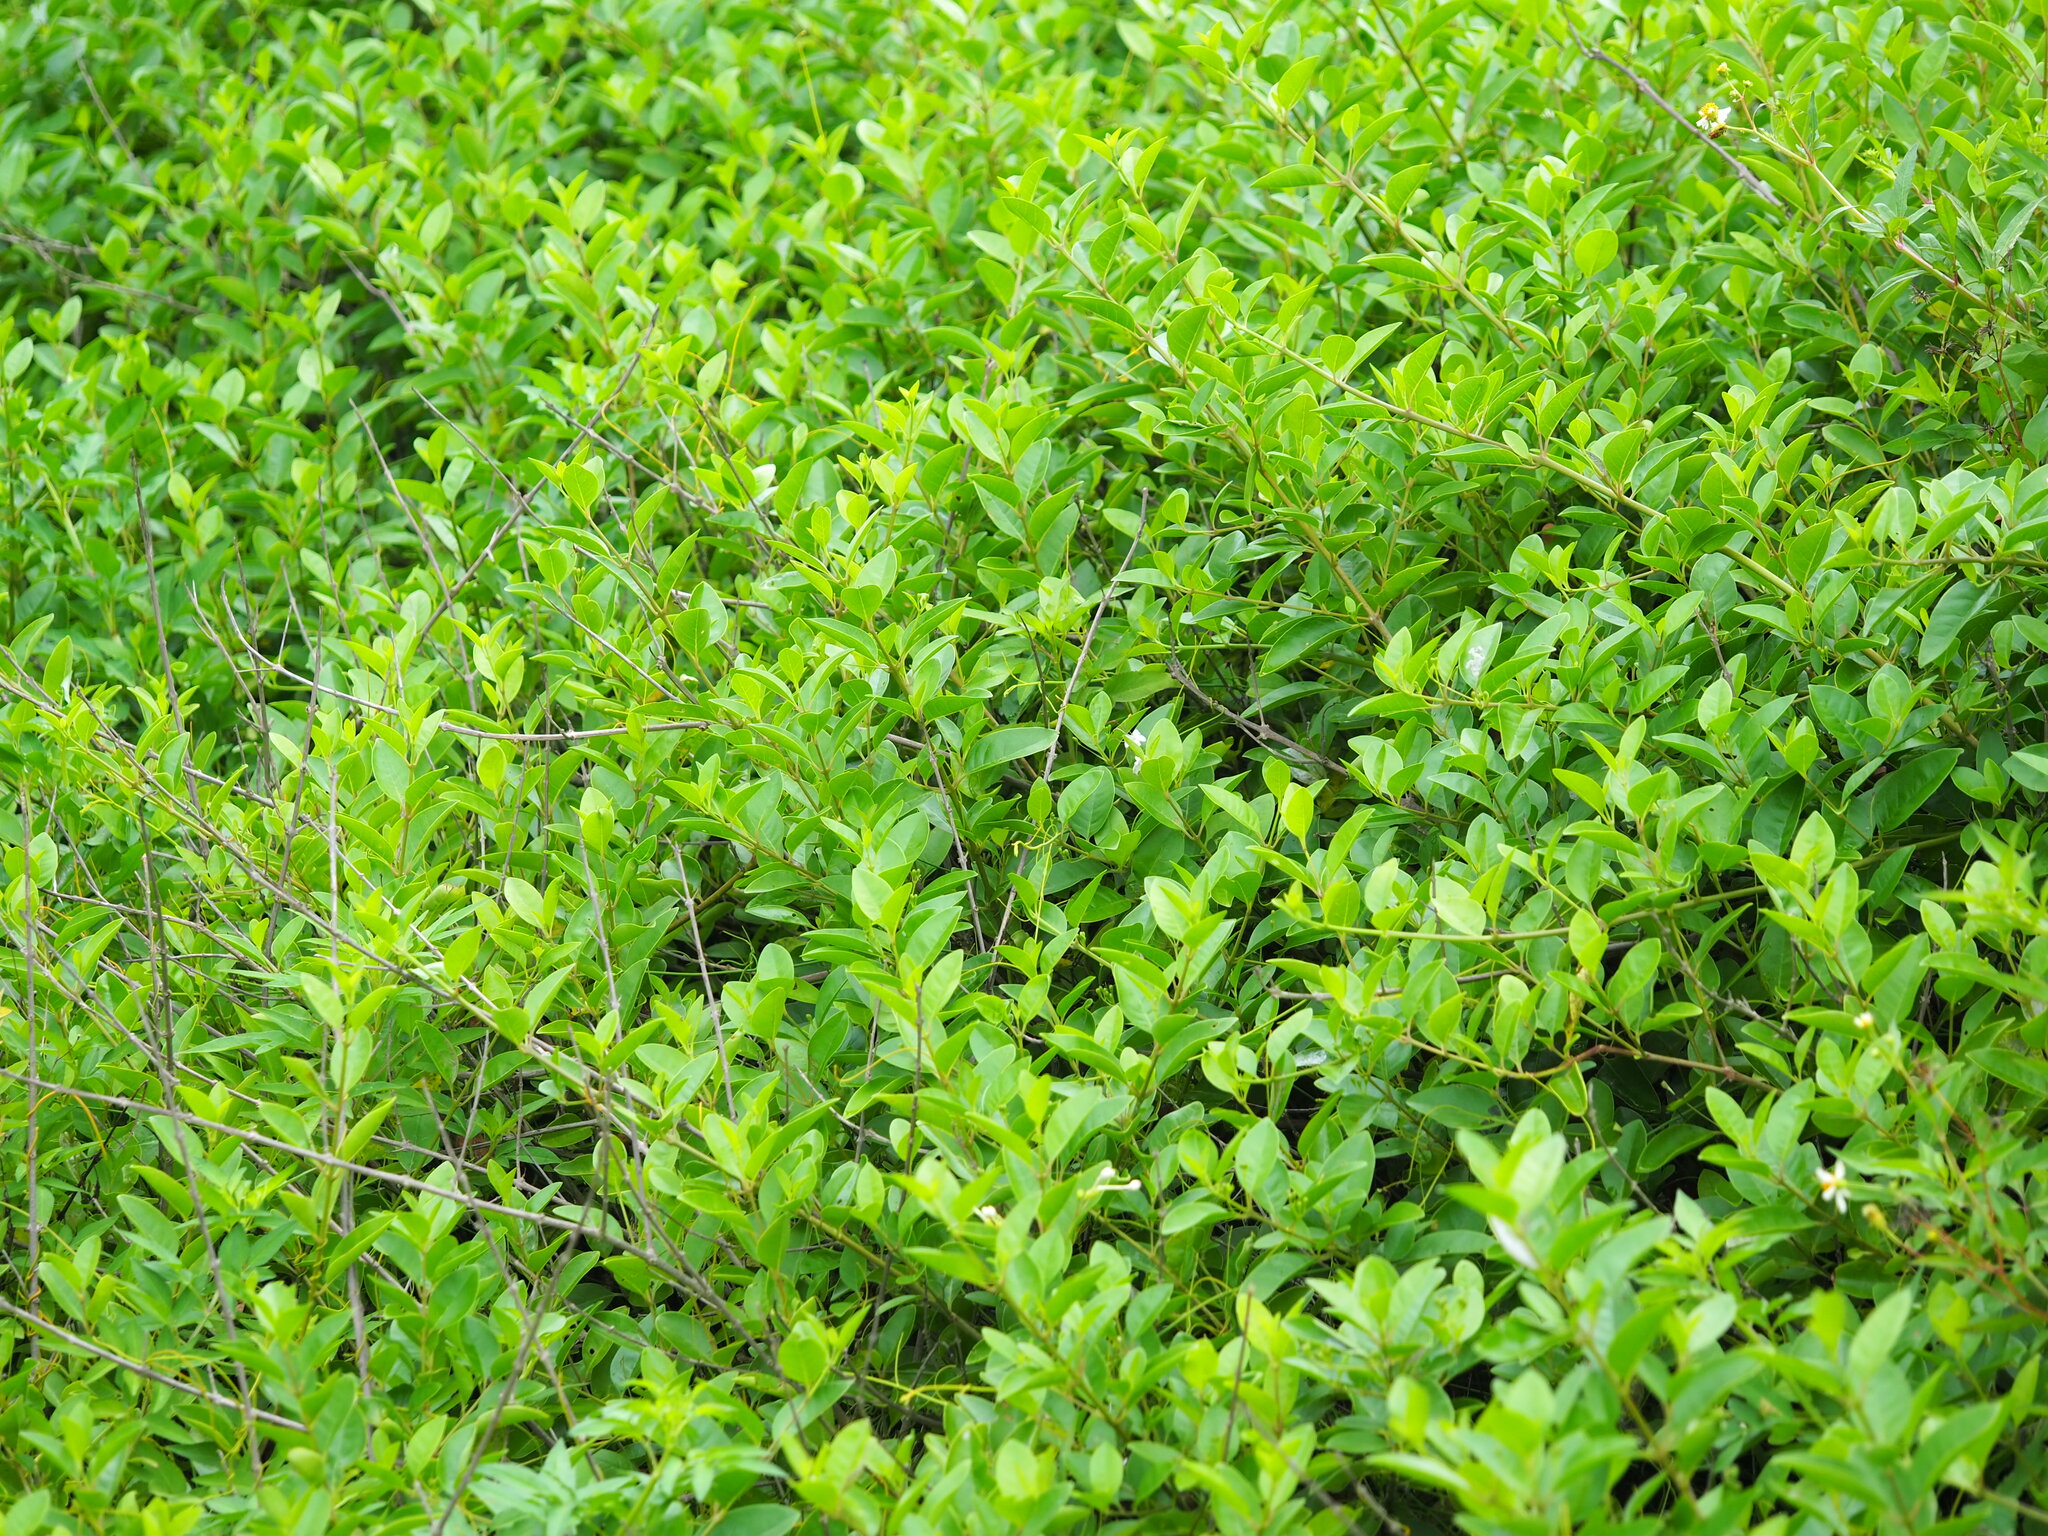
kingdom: Plantae
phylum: Tracheophyta
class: Magnoliopsida
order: Lamiales
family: Lamiaceae
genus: Volkameria
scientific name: Volkameria inermis
